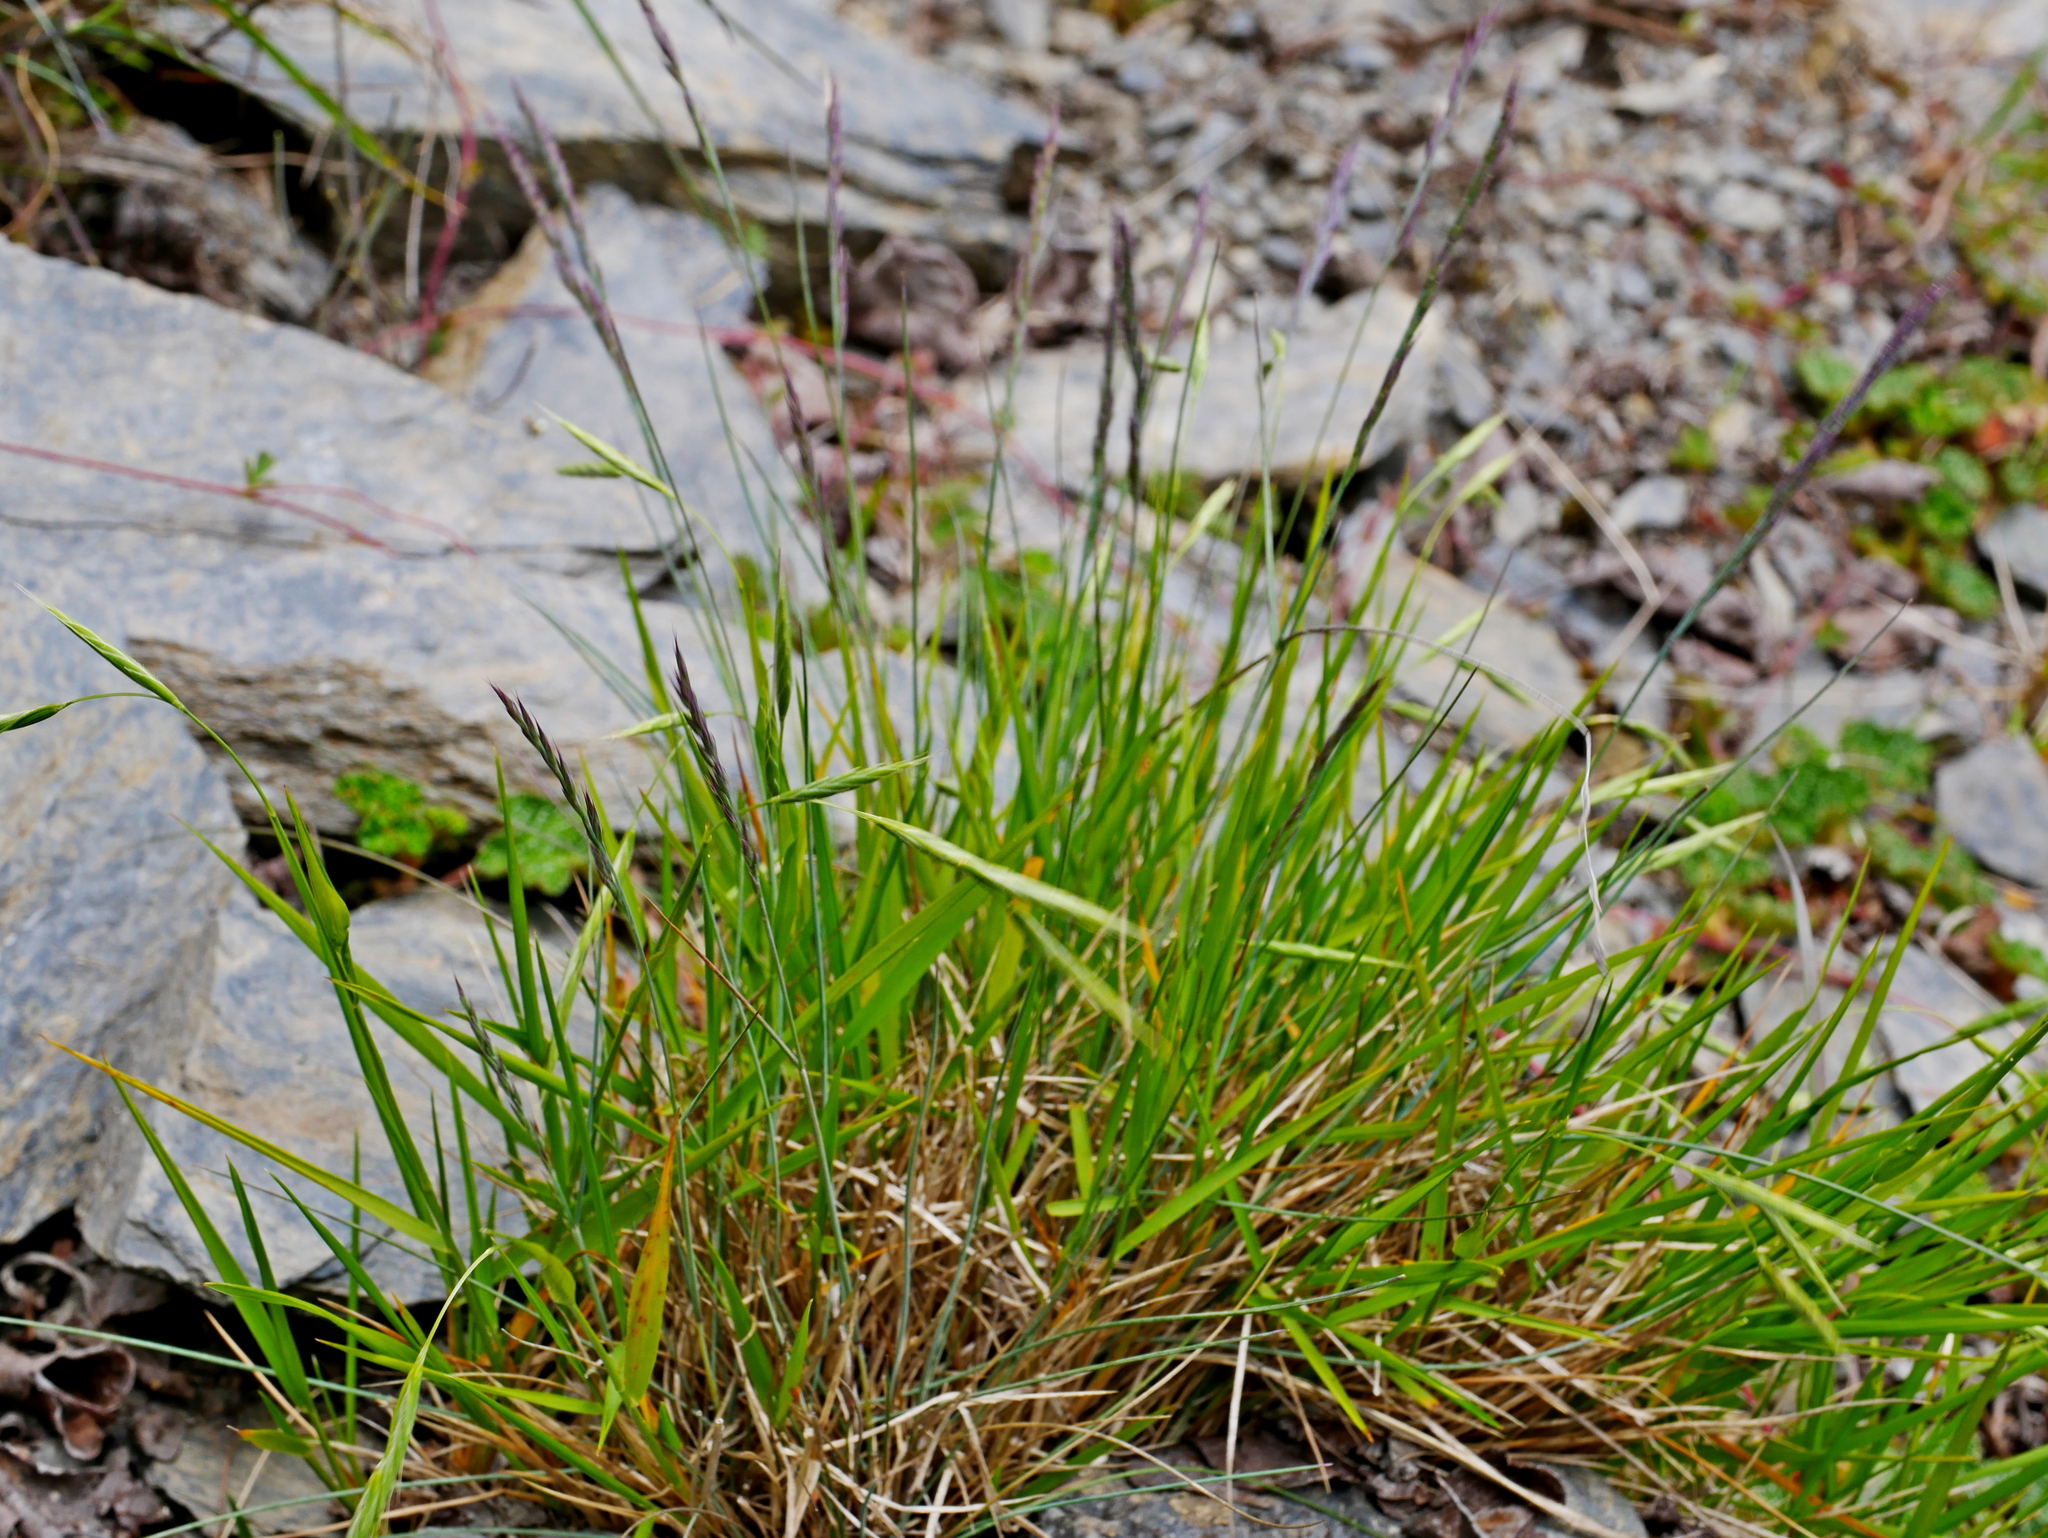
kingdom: Plantae
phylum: Tracheophyta
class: Liliopsida
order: Poales
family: Poaceae
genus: Brachypodium
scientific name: Brachypodium kawakamii
